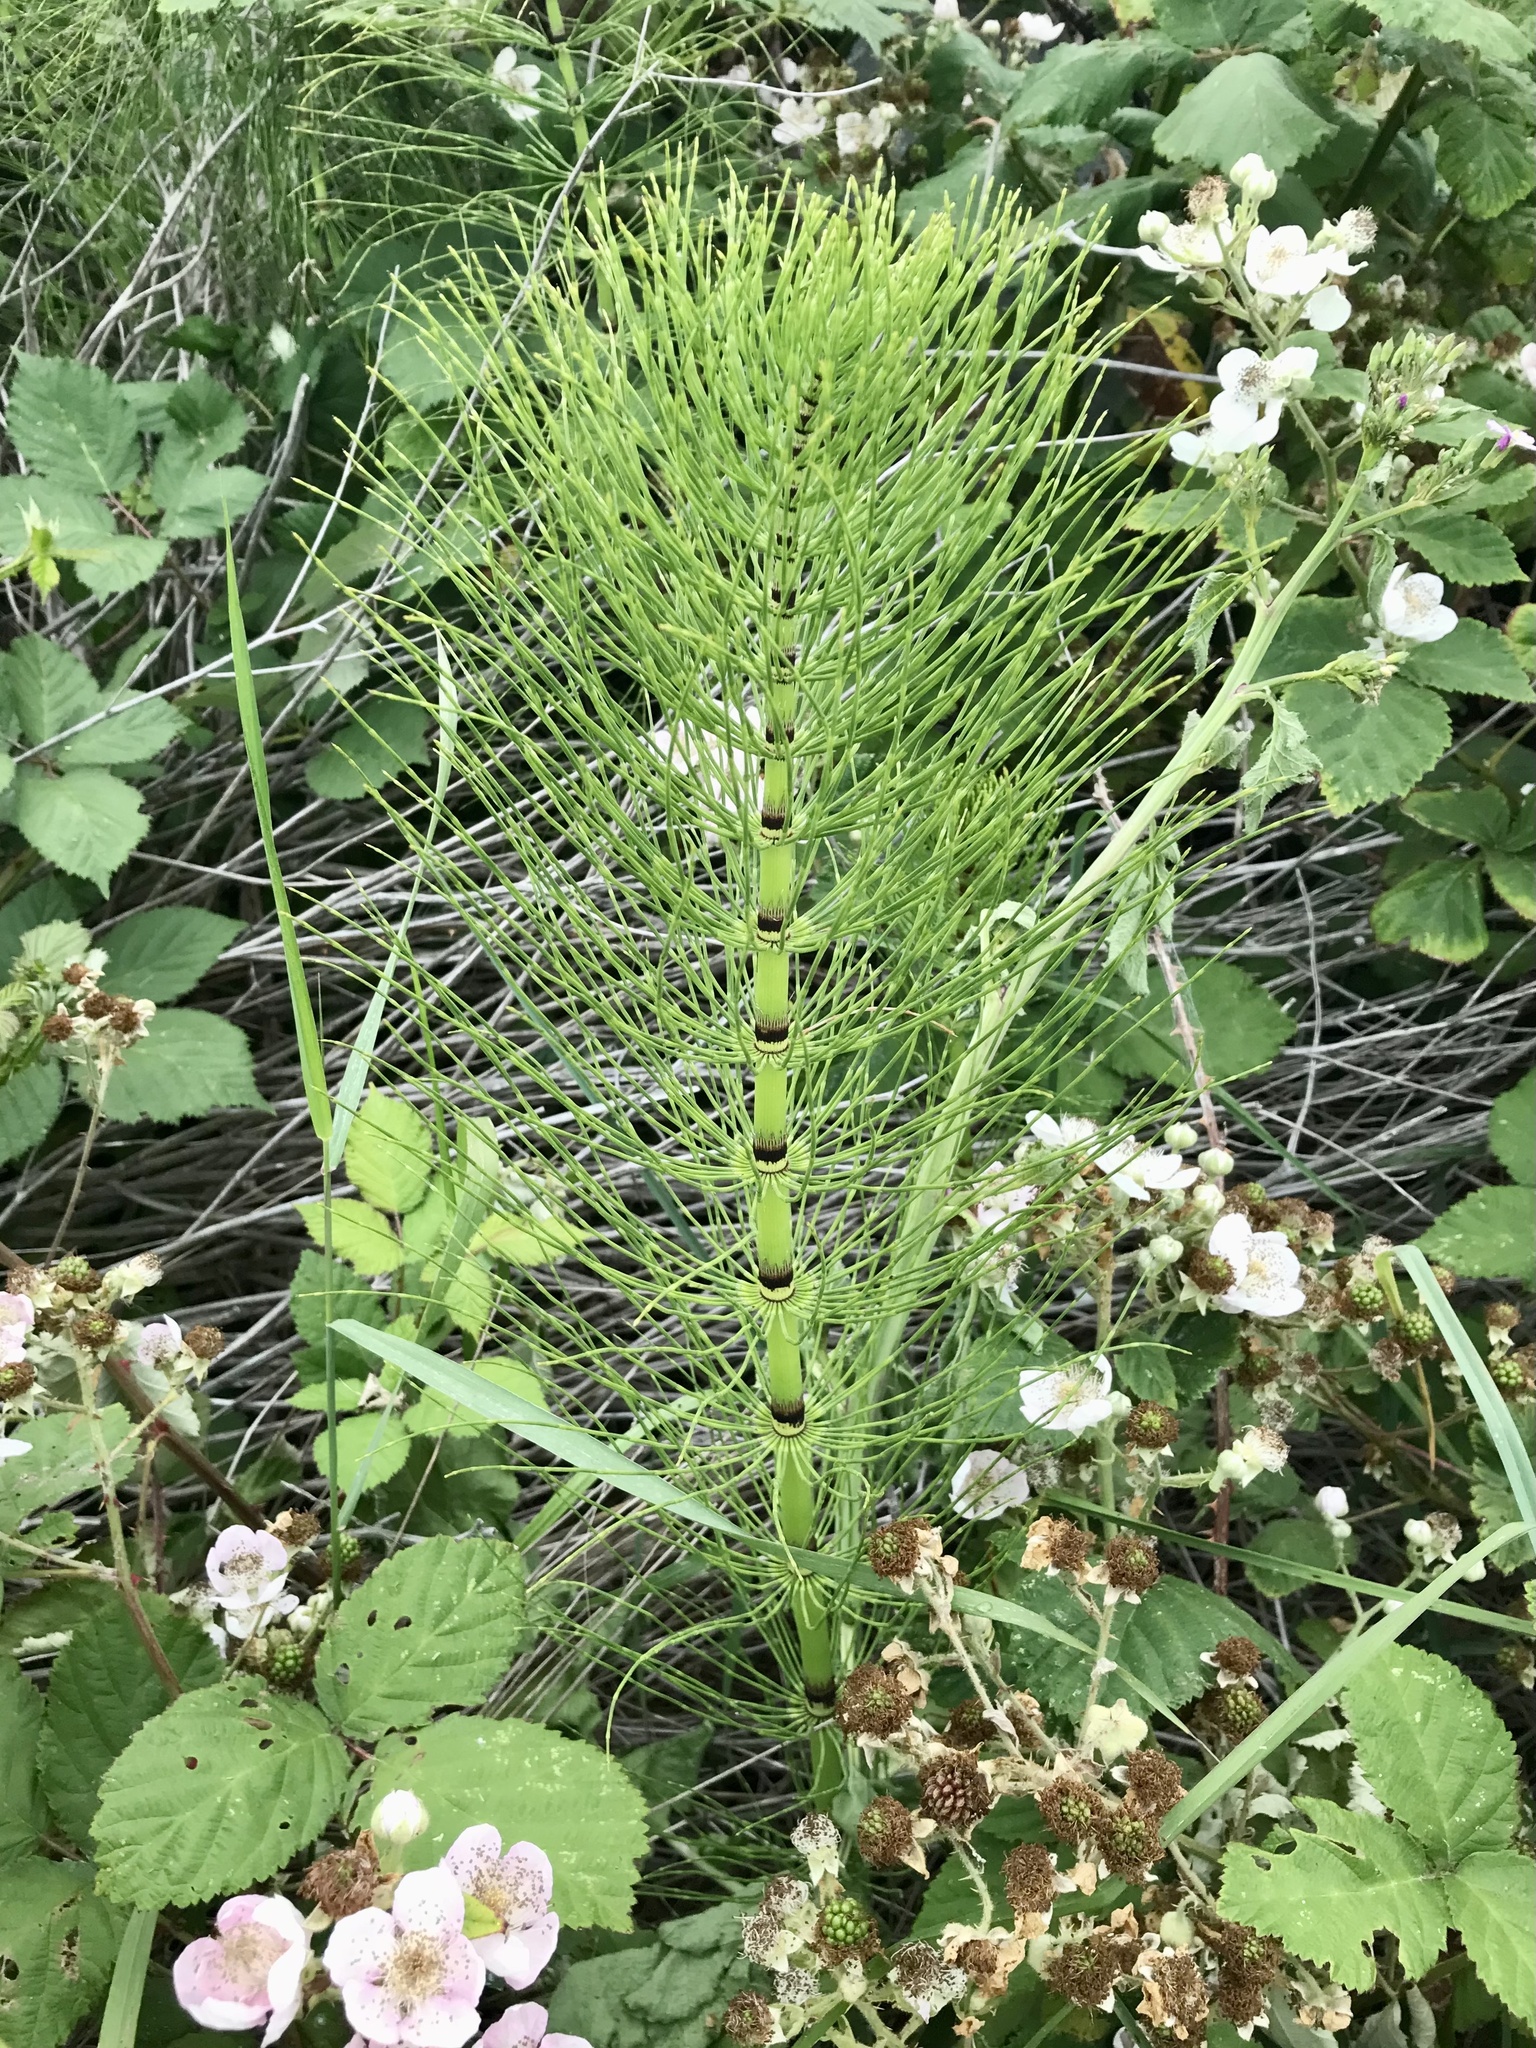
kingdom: Plantae
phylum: Tracheophyta
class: Polypodiopsida
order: Equisetales
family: Equisetaceae
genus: Equisetum
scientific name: Equisetum telmateia
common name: Great horsetail
